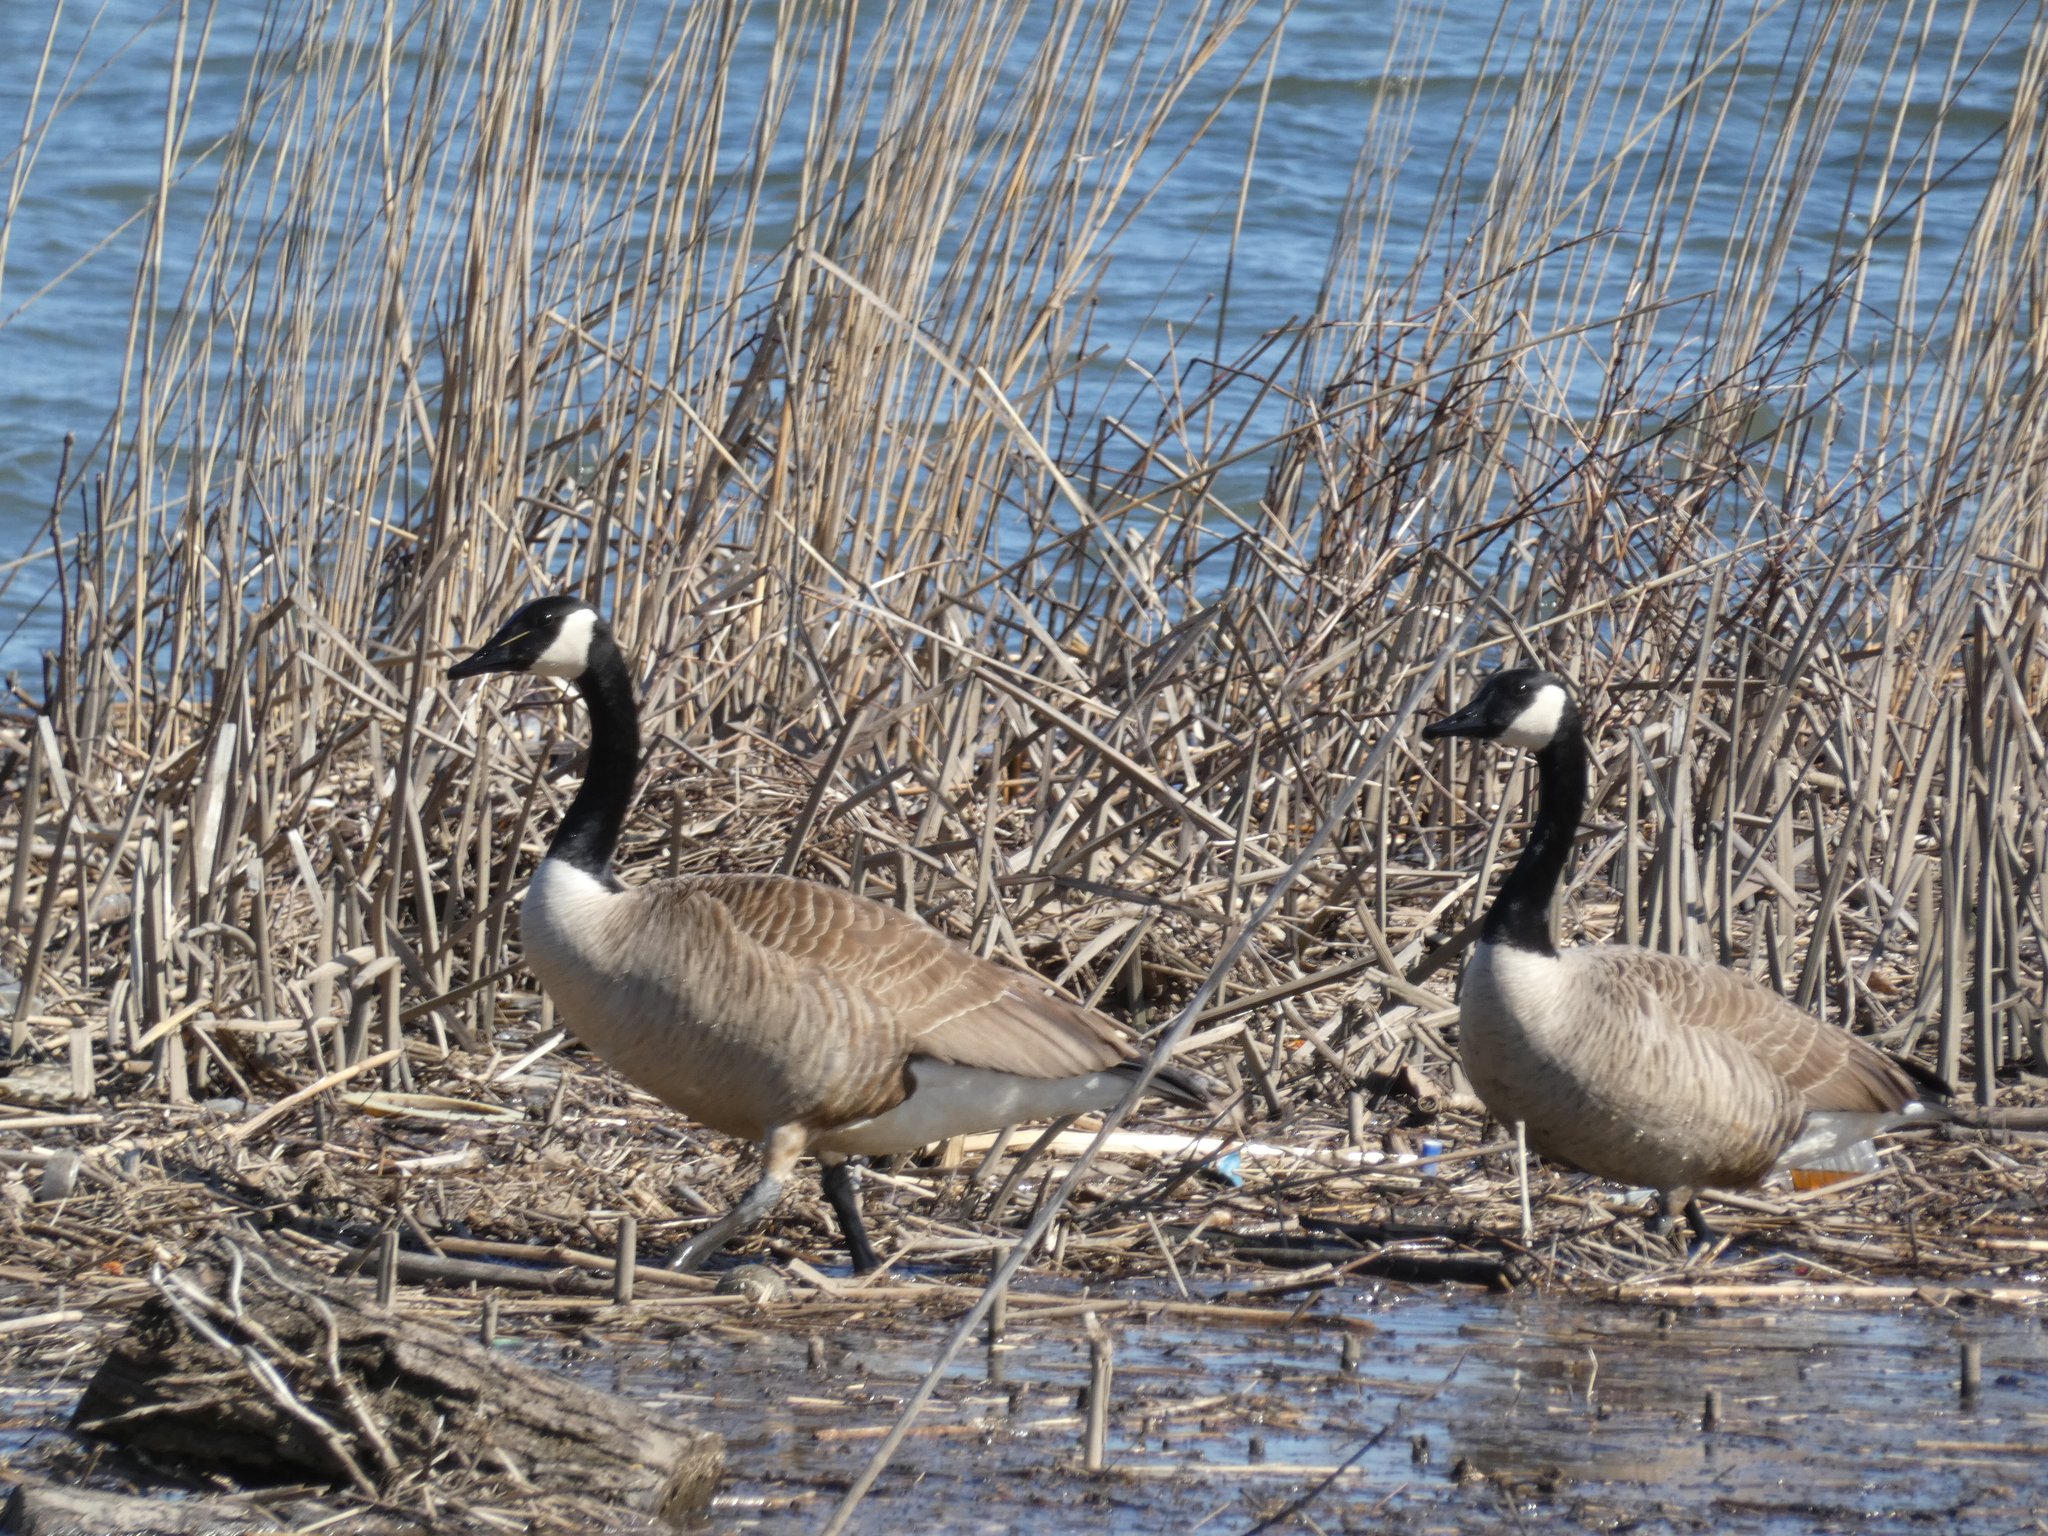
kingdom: Animalia
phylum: Chordata
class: Aves
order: Anseriformes
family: Anatidae
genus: Branta
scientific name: Branta canadensis
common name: Canada goose
